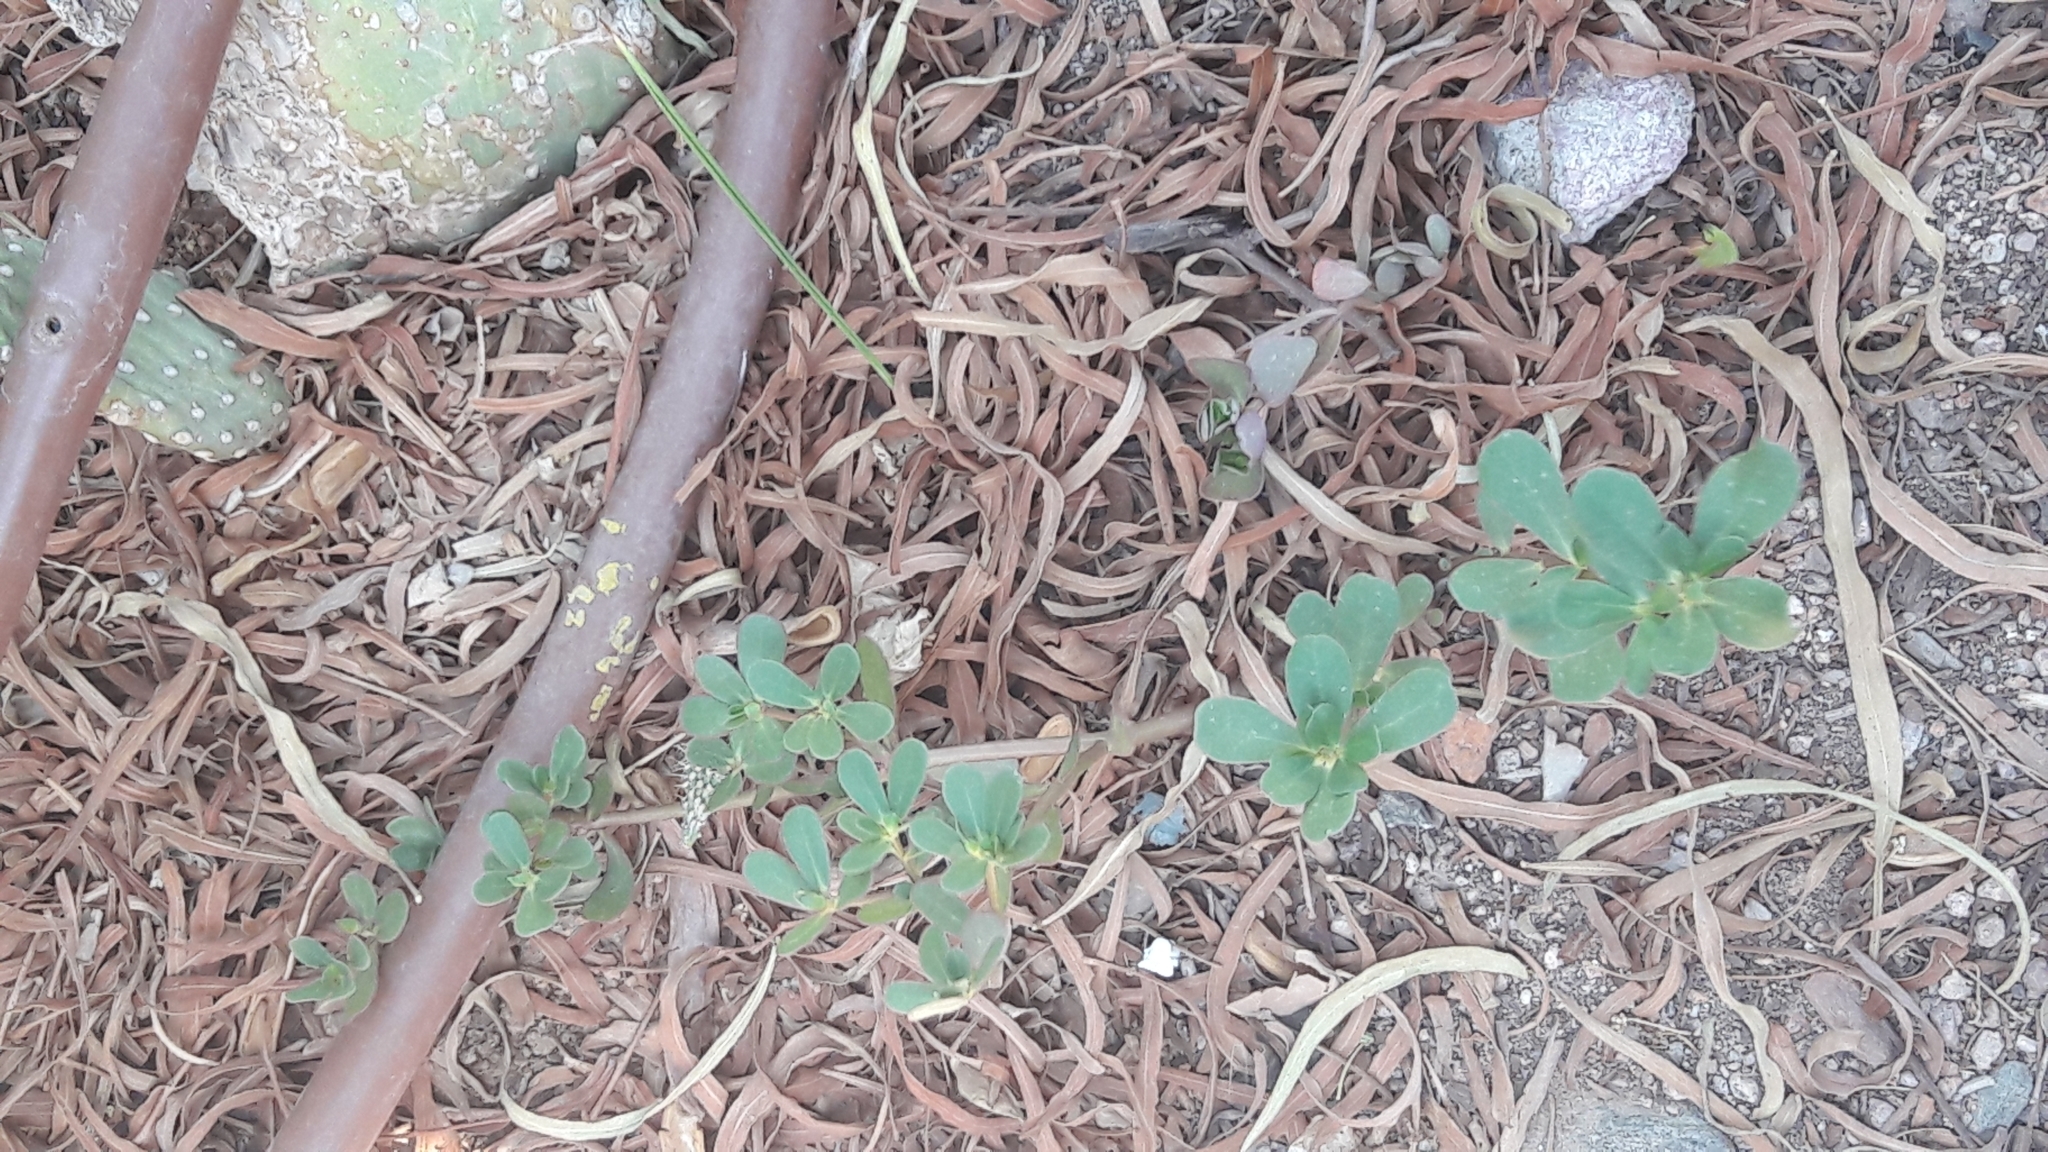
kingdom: Plantae
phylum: Tracheophyta
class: Magnoliopsida
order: Caryophyllales
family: Portulacaceae
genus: Portulaca
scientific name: Portulaca oleracea
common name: Common purslane
